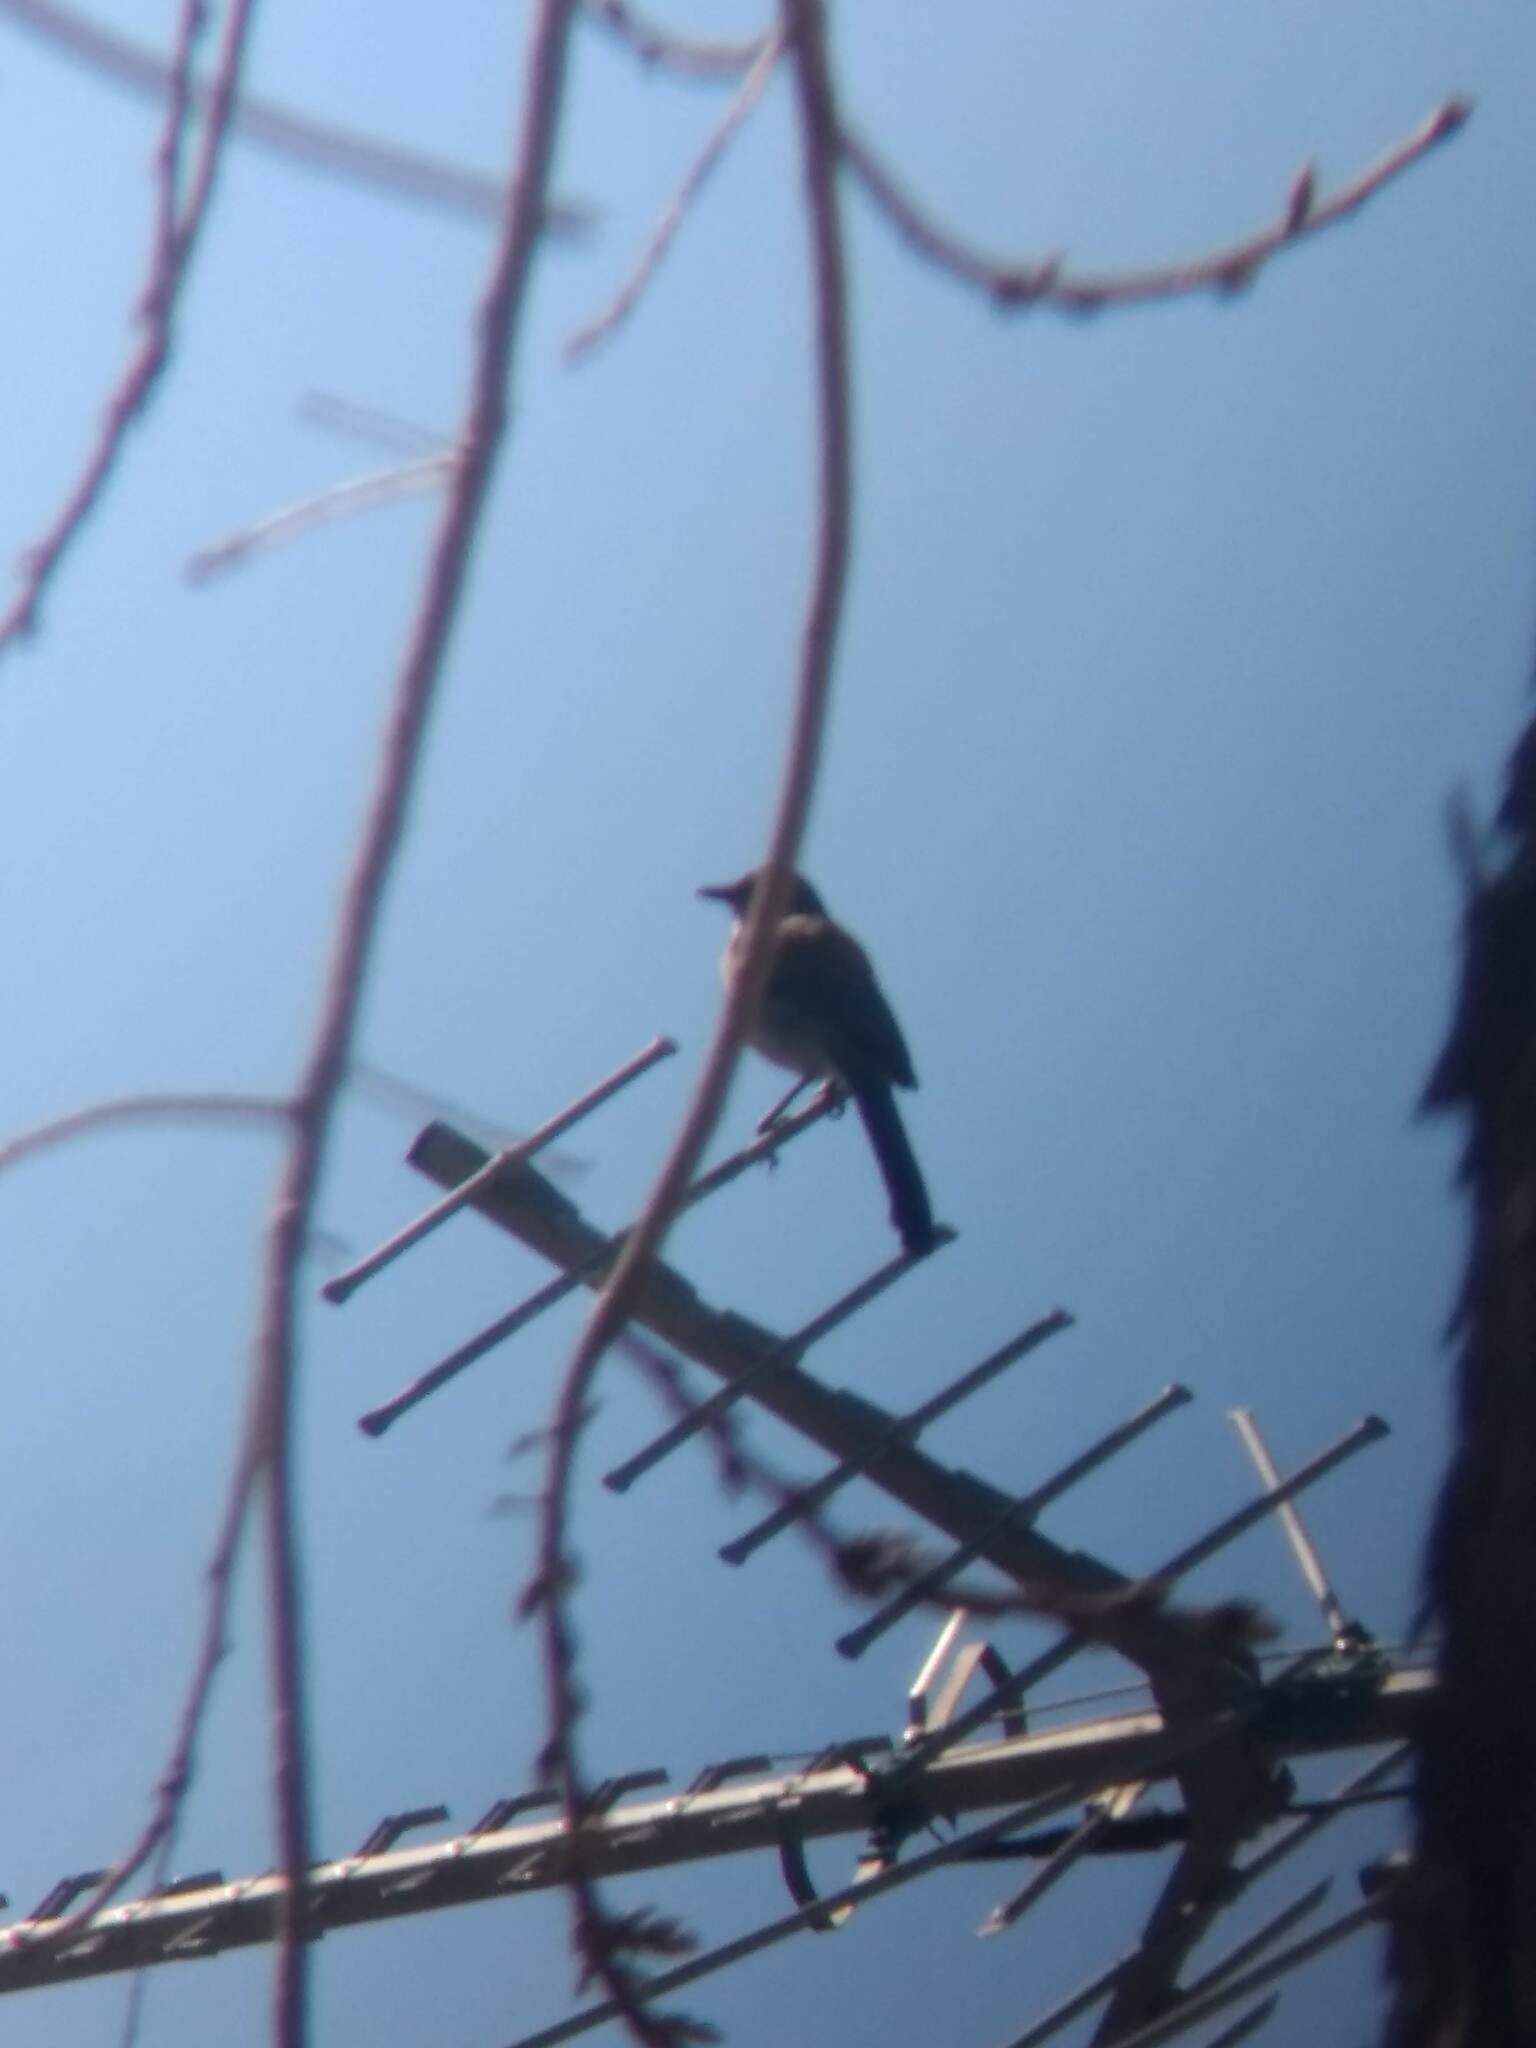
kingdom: Animalia
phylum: Chordata
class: Aves
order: Passeriformes
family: Corvidae
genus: Aphelocoma
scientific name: Aphelocoma californica
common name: California scrub-jay
